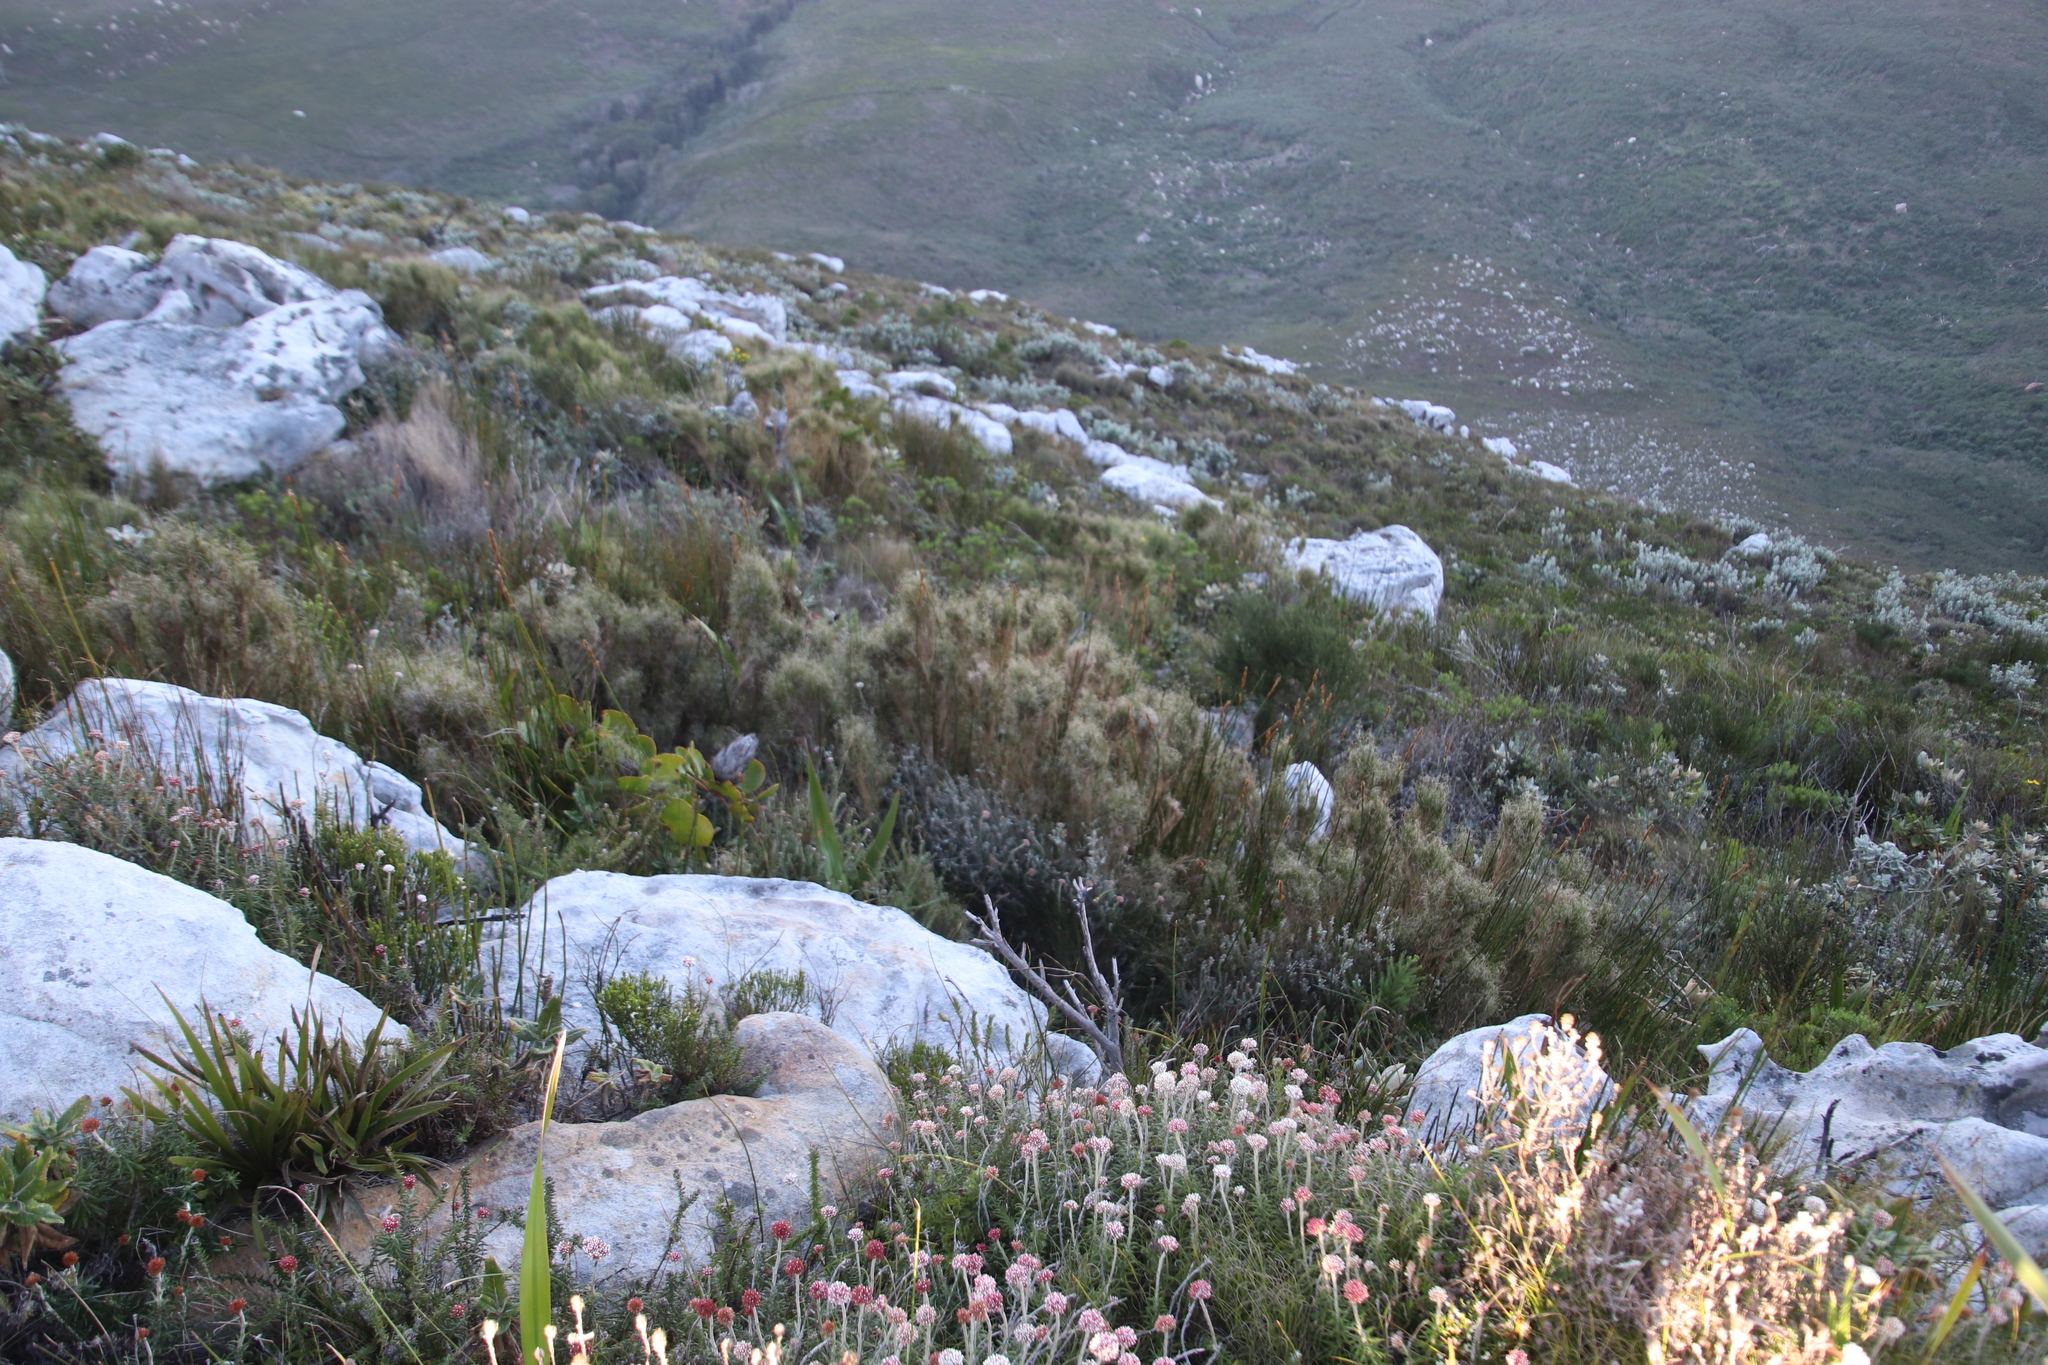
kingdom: Plantae
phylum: Tracheophyta
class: Liliopsida
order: Poales
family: Poaceae
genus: Pseudopentameris
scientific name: Pseudopentameris macrantha
